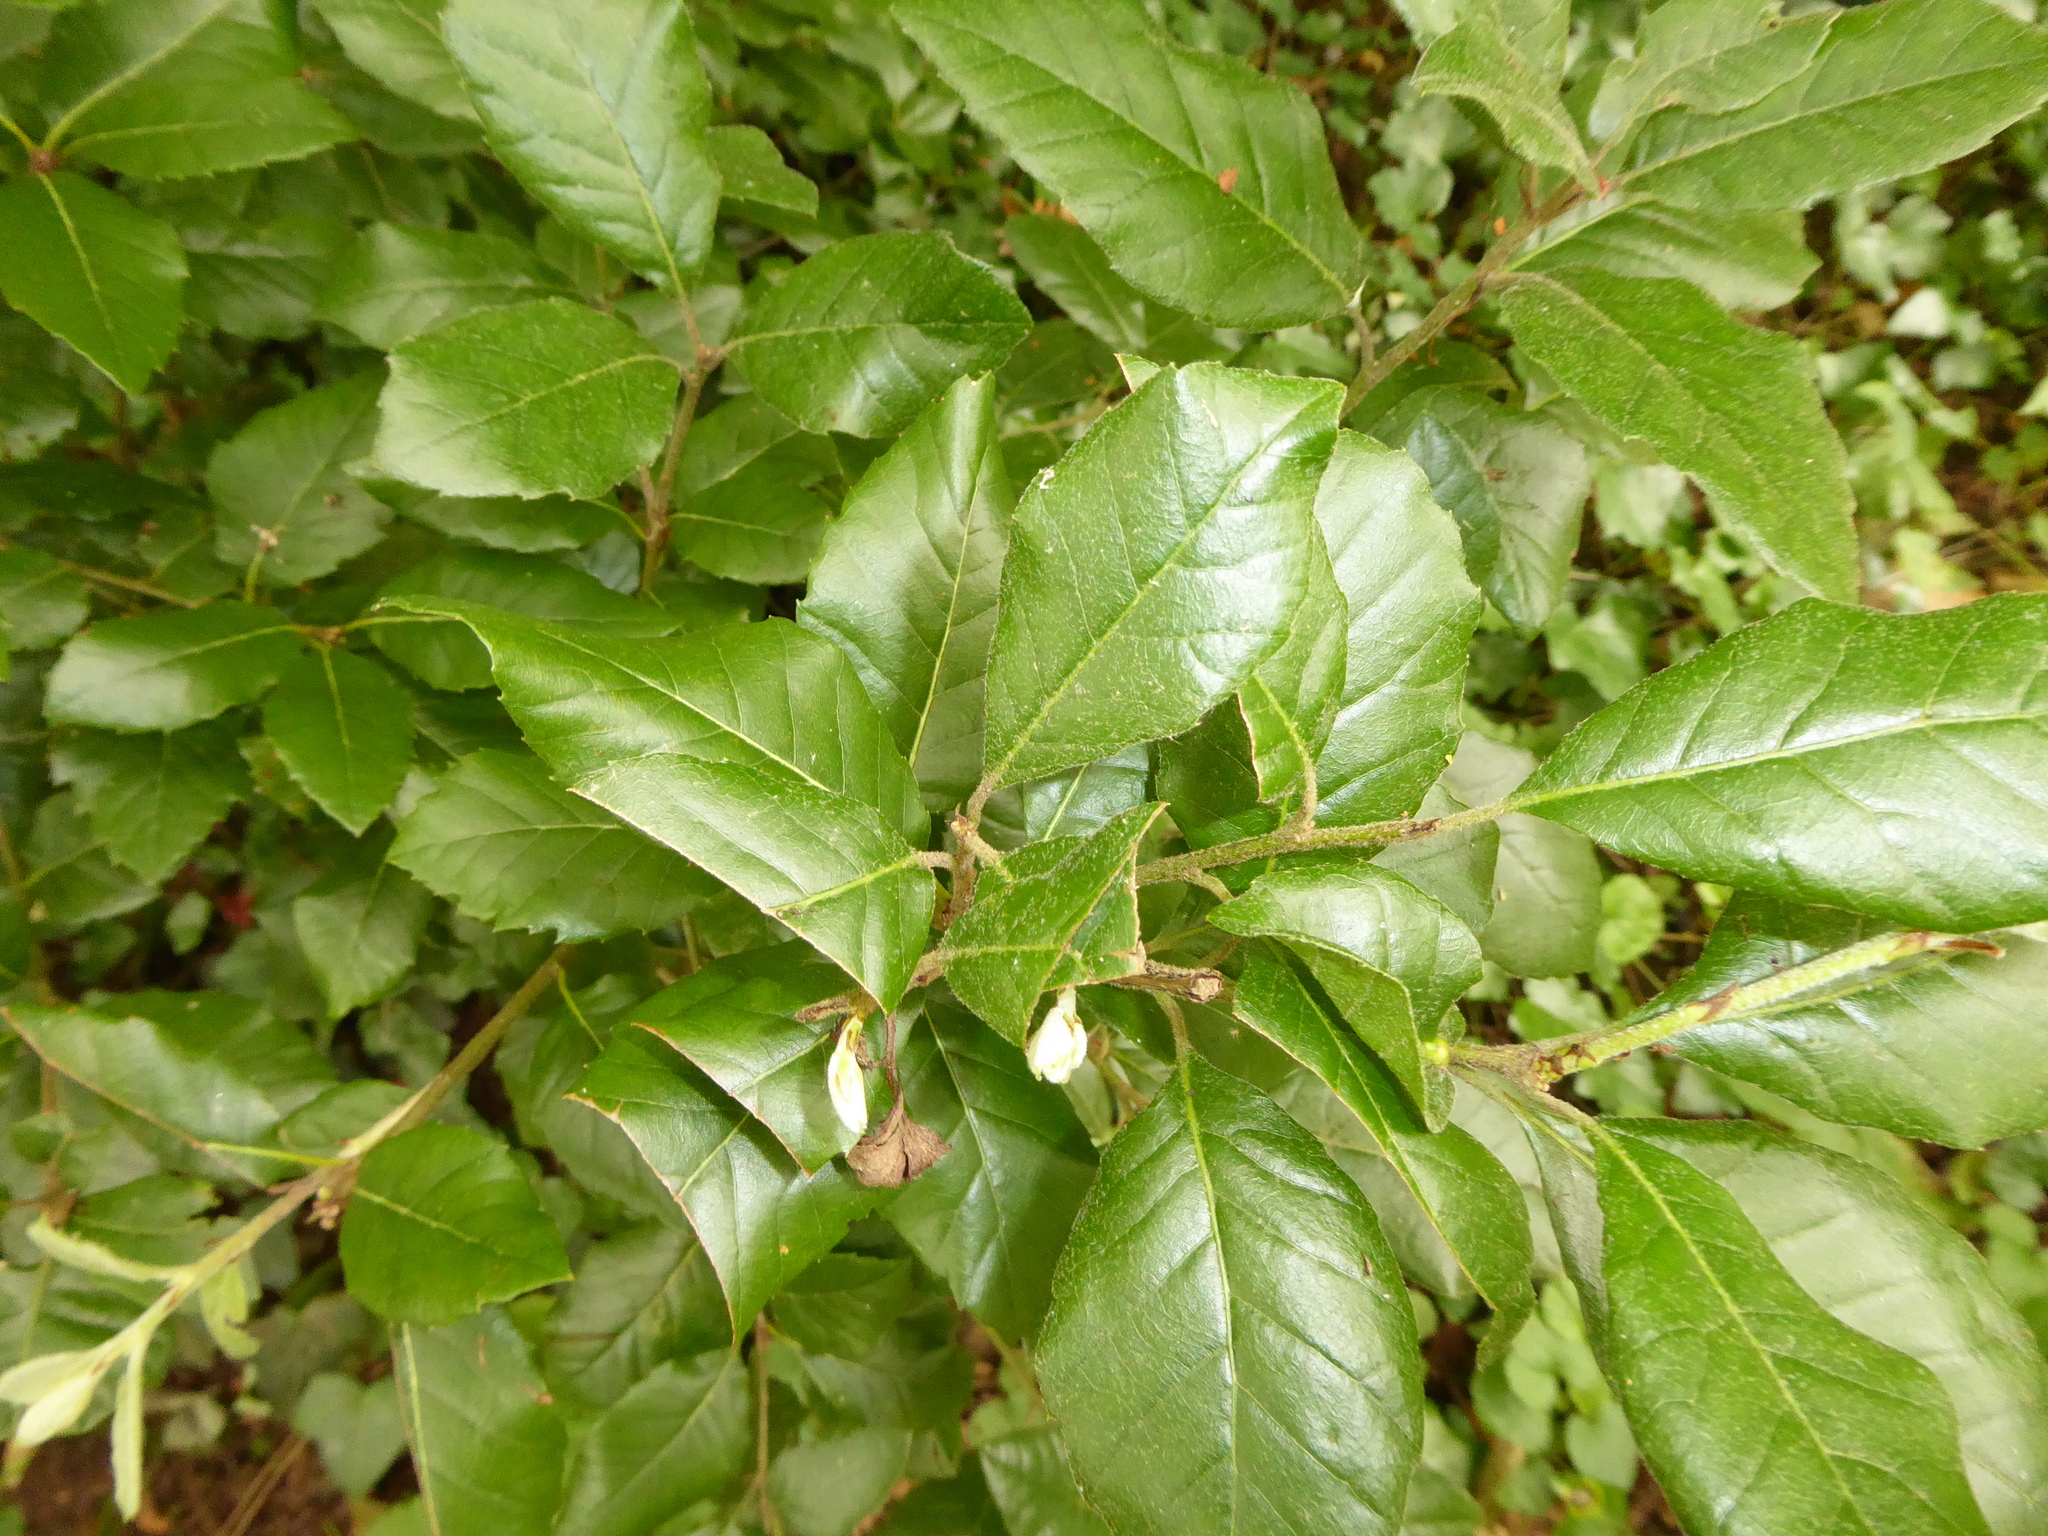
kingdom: Plantae
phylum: Tracheophyta
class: Magnoliopsida
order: Fagales
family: Fagaceae
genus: Quercus
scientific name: Quercus ilex
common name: Evergreen oak
